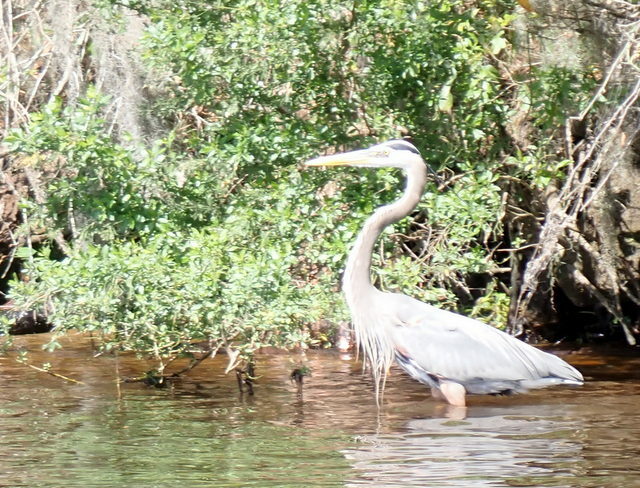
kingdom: Animalia
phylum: Chordata
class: Aves
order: Pelecaniformes
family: Ardeidae
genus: Ardea
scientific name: Ardea herodias
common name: Great blue heron
